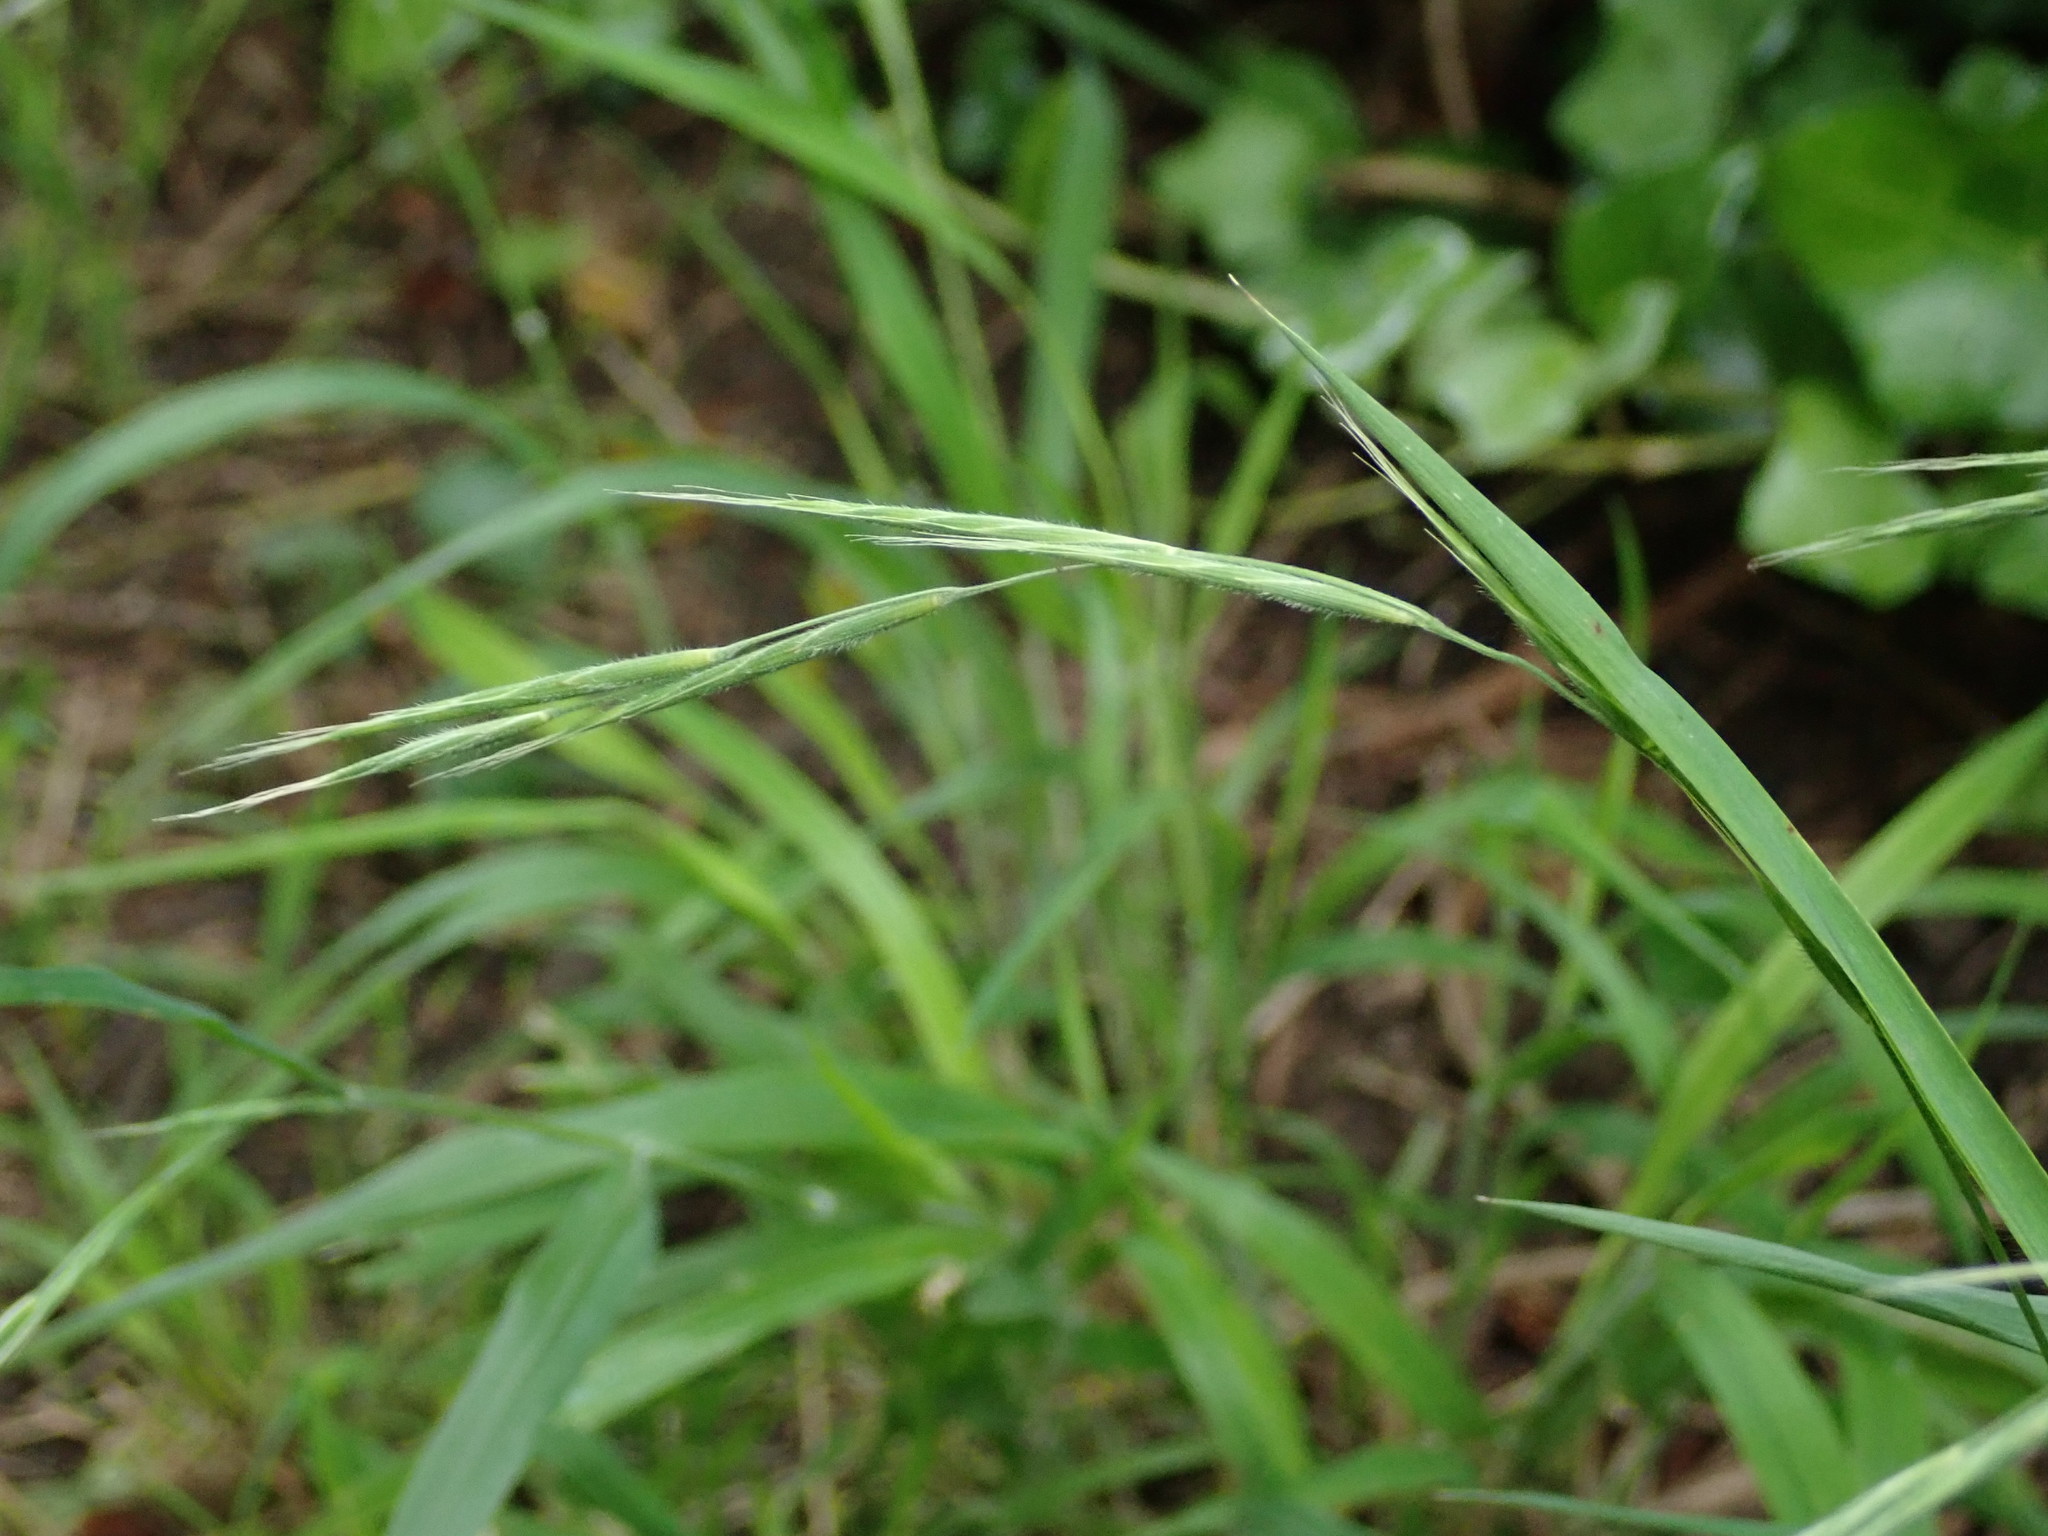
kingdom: Plantae
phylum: Tracheophyta
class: Liliopsida
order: Poales
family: Poaceae
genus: Brachypodium
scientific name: Brachypodium sylvaticum
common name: False-brome
